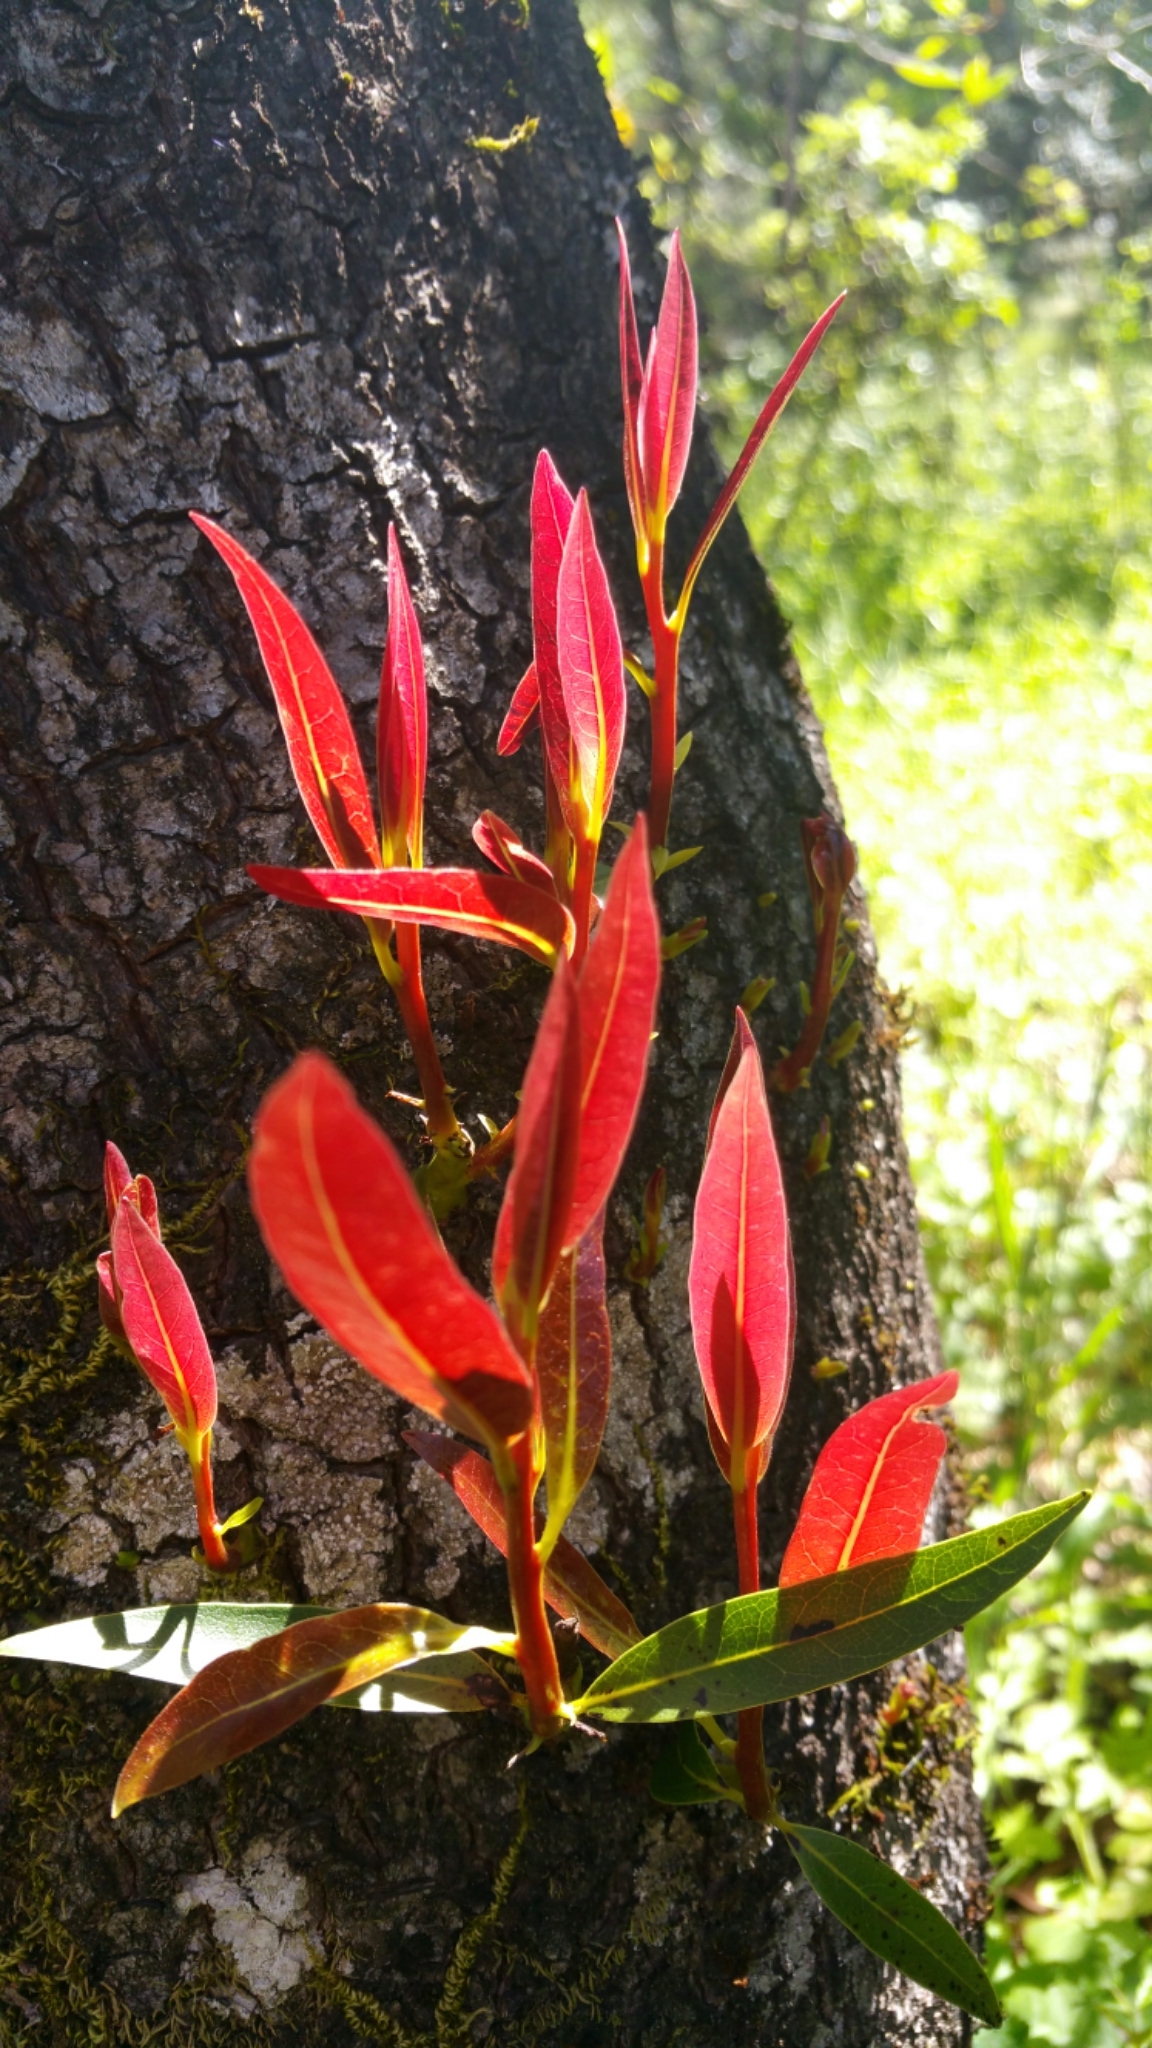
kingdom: Plantae
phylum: Tracheophyta
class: Magnoliopsida
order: Laurales
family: Lauraceae
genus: Umbellularia
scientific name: Umbellularia californica
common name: California bay
